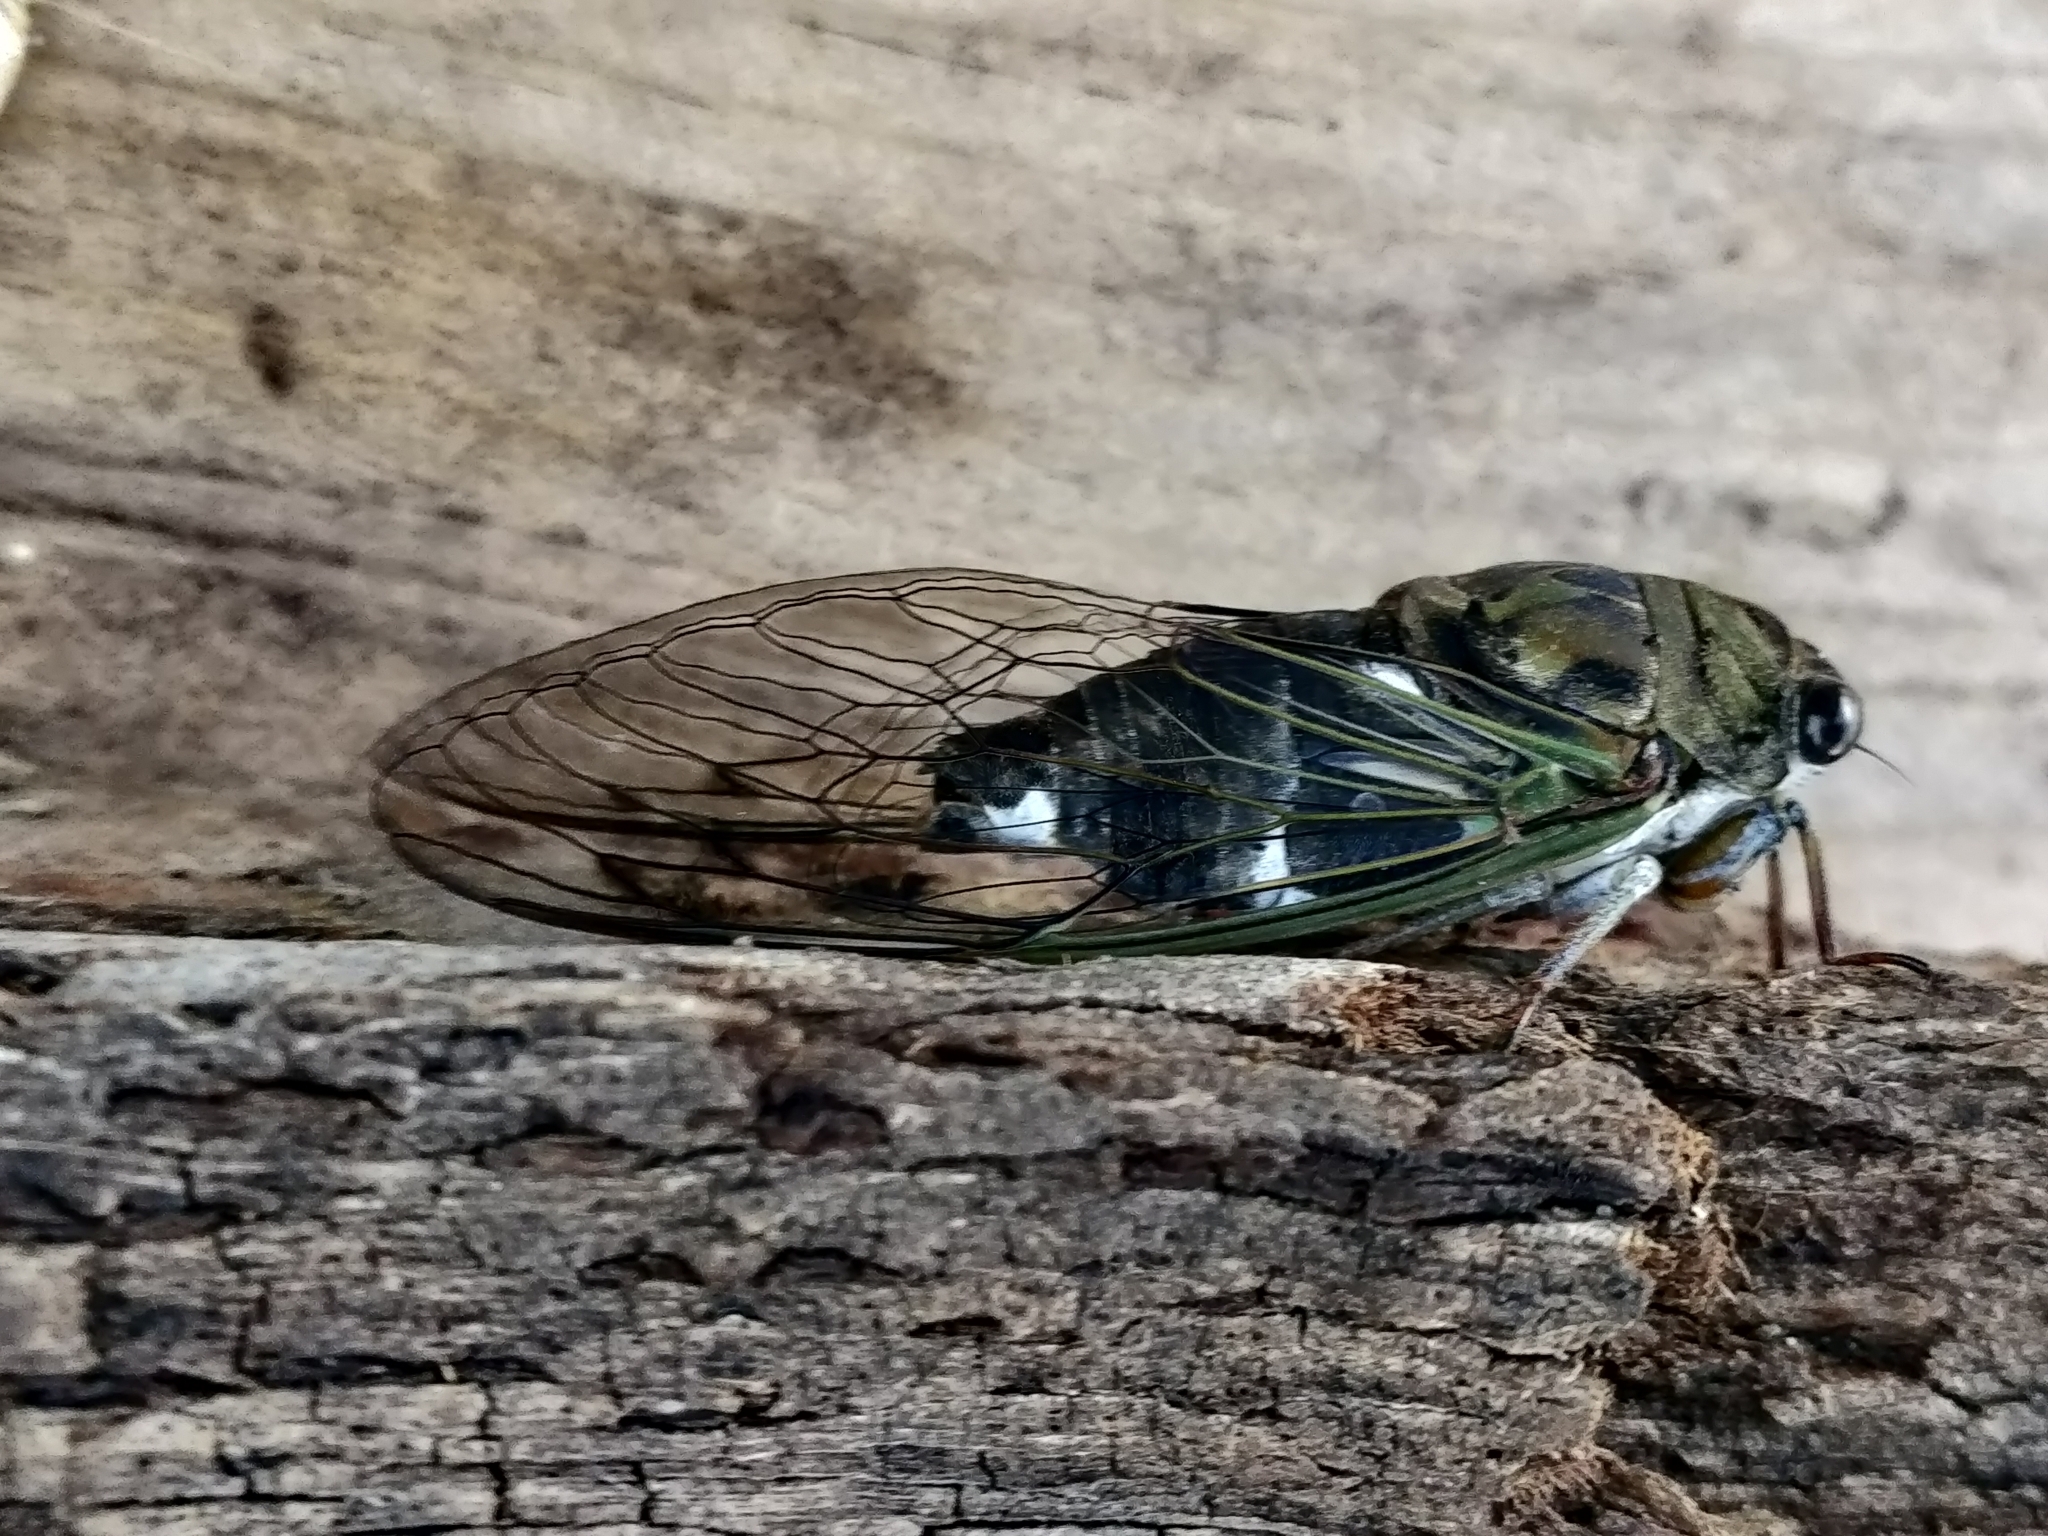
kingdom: Animalia
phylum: Arthropoda
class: Insecta
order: Hemiptera
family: Cicadidae
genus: Neotibicen
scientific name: Neotibicen pruinosus
